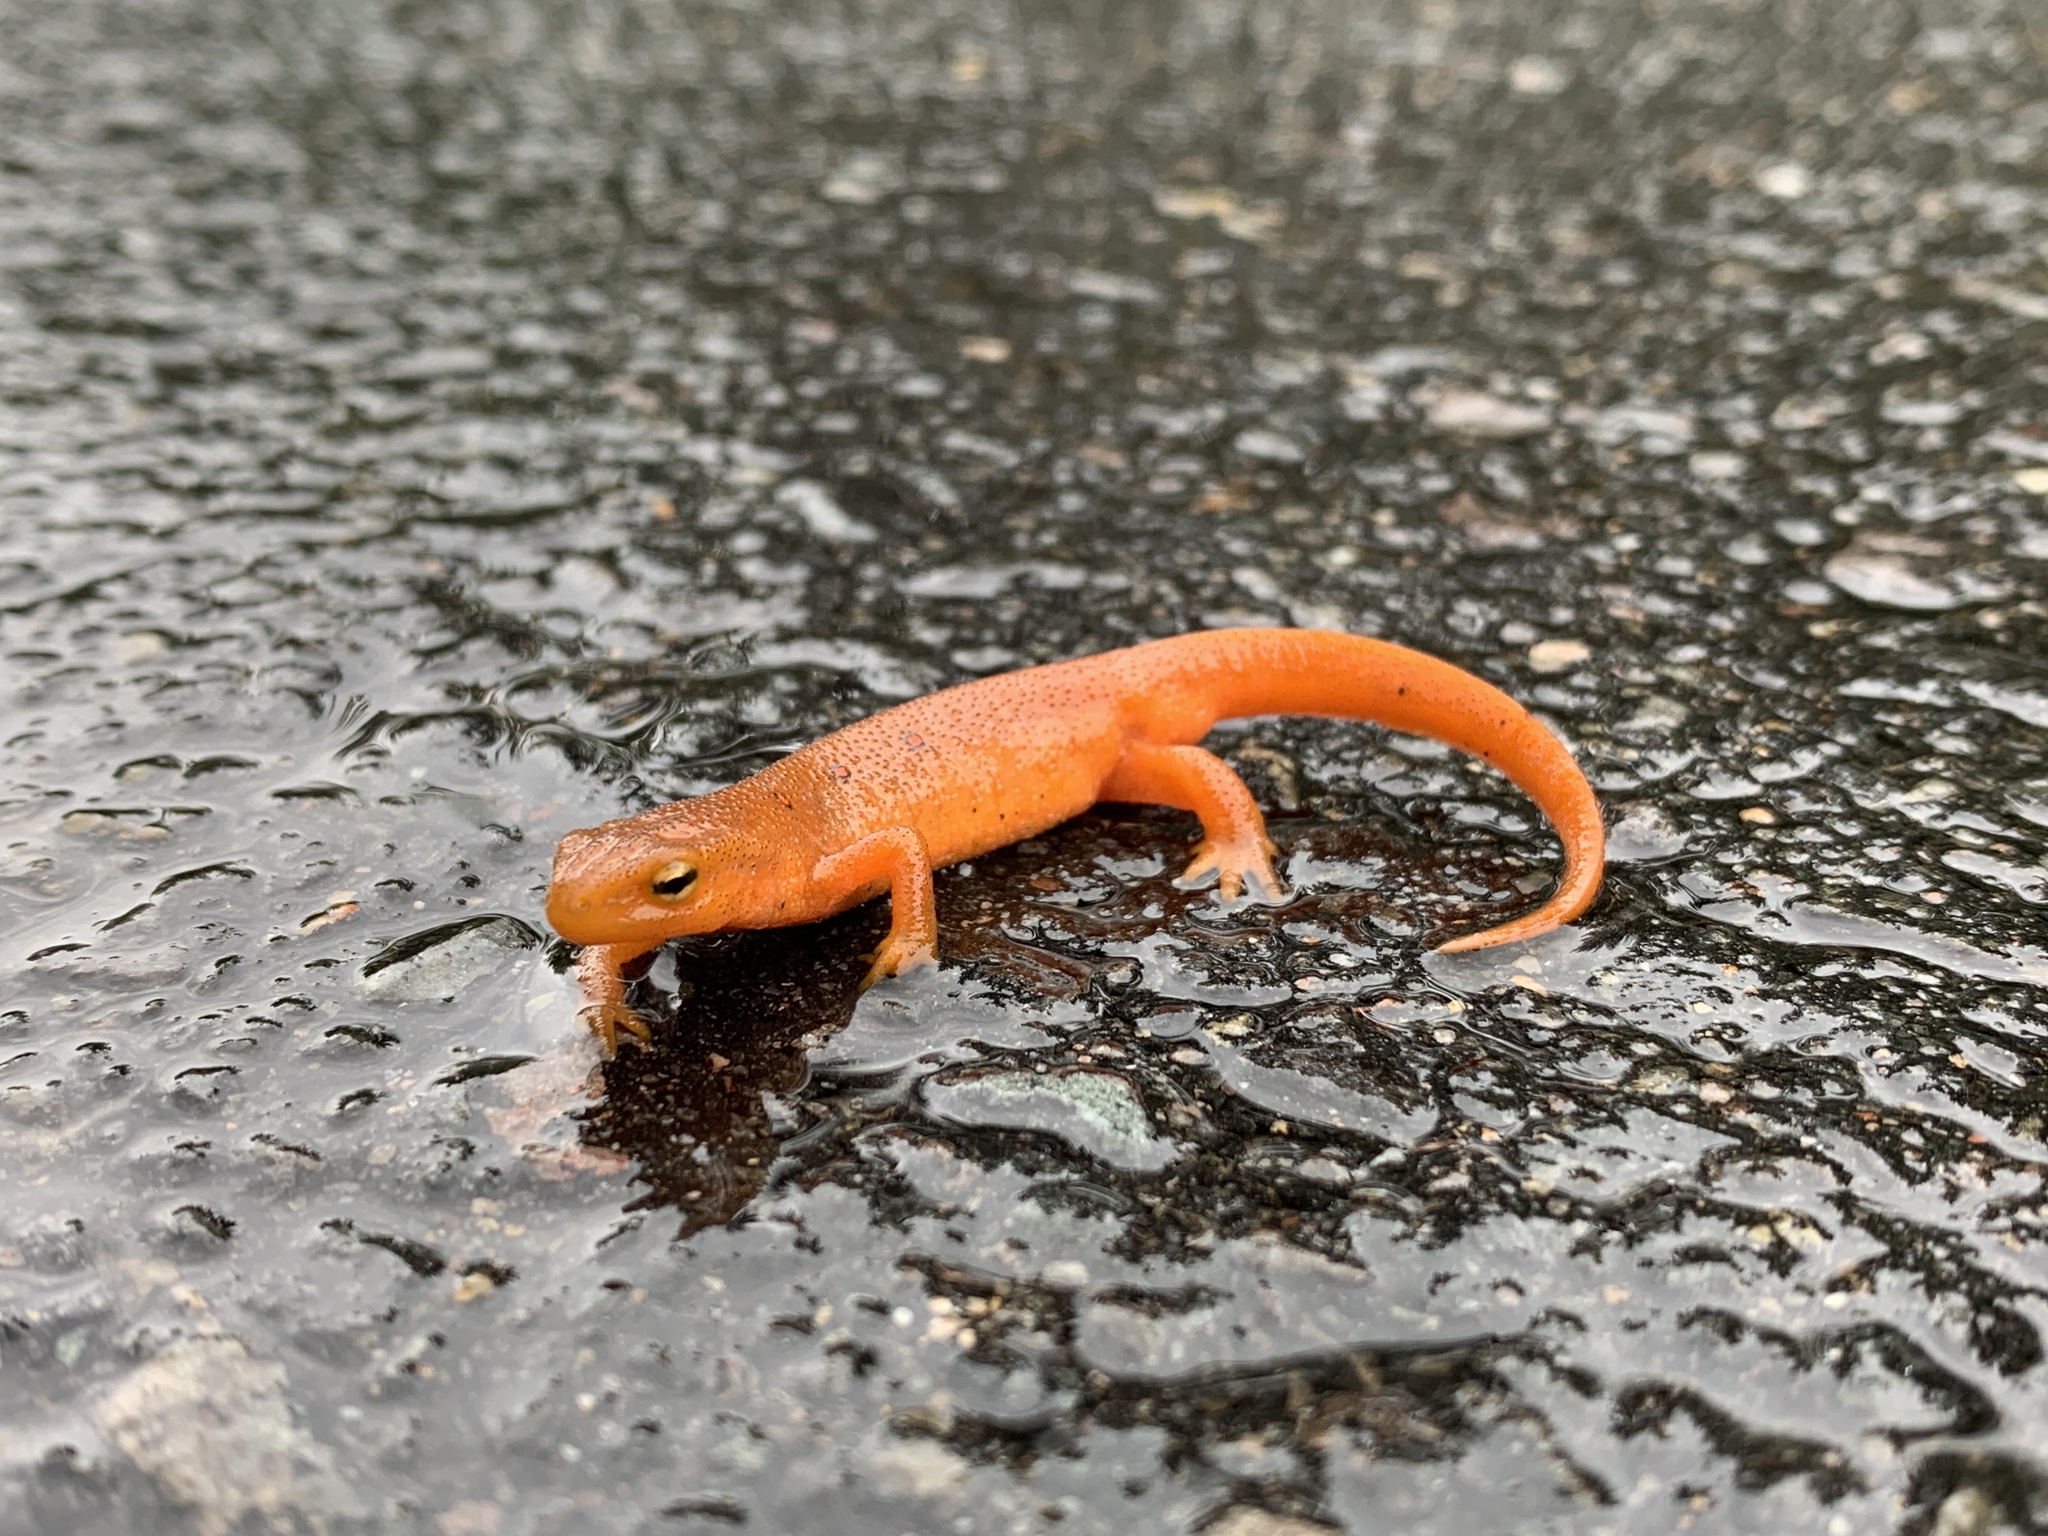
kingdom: Animalia
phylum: Chordata
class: Amphibia
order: Caudata
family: Salamandridae
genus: Notophthalmus
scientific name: Notophthalmus viridescens
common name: Eastern newt
